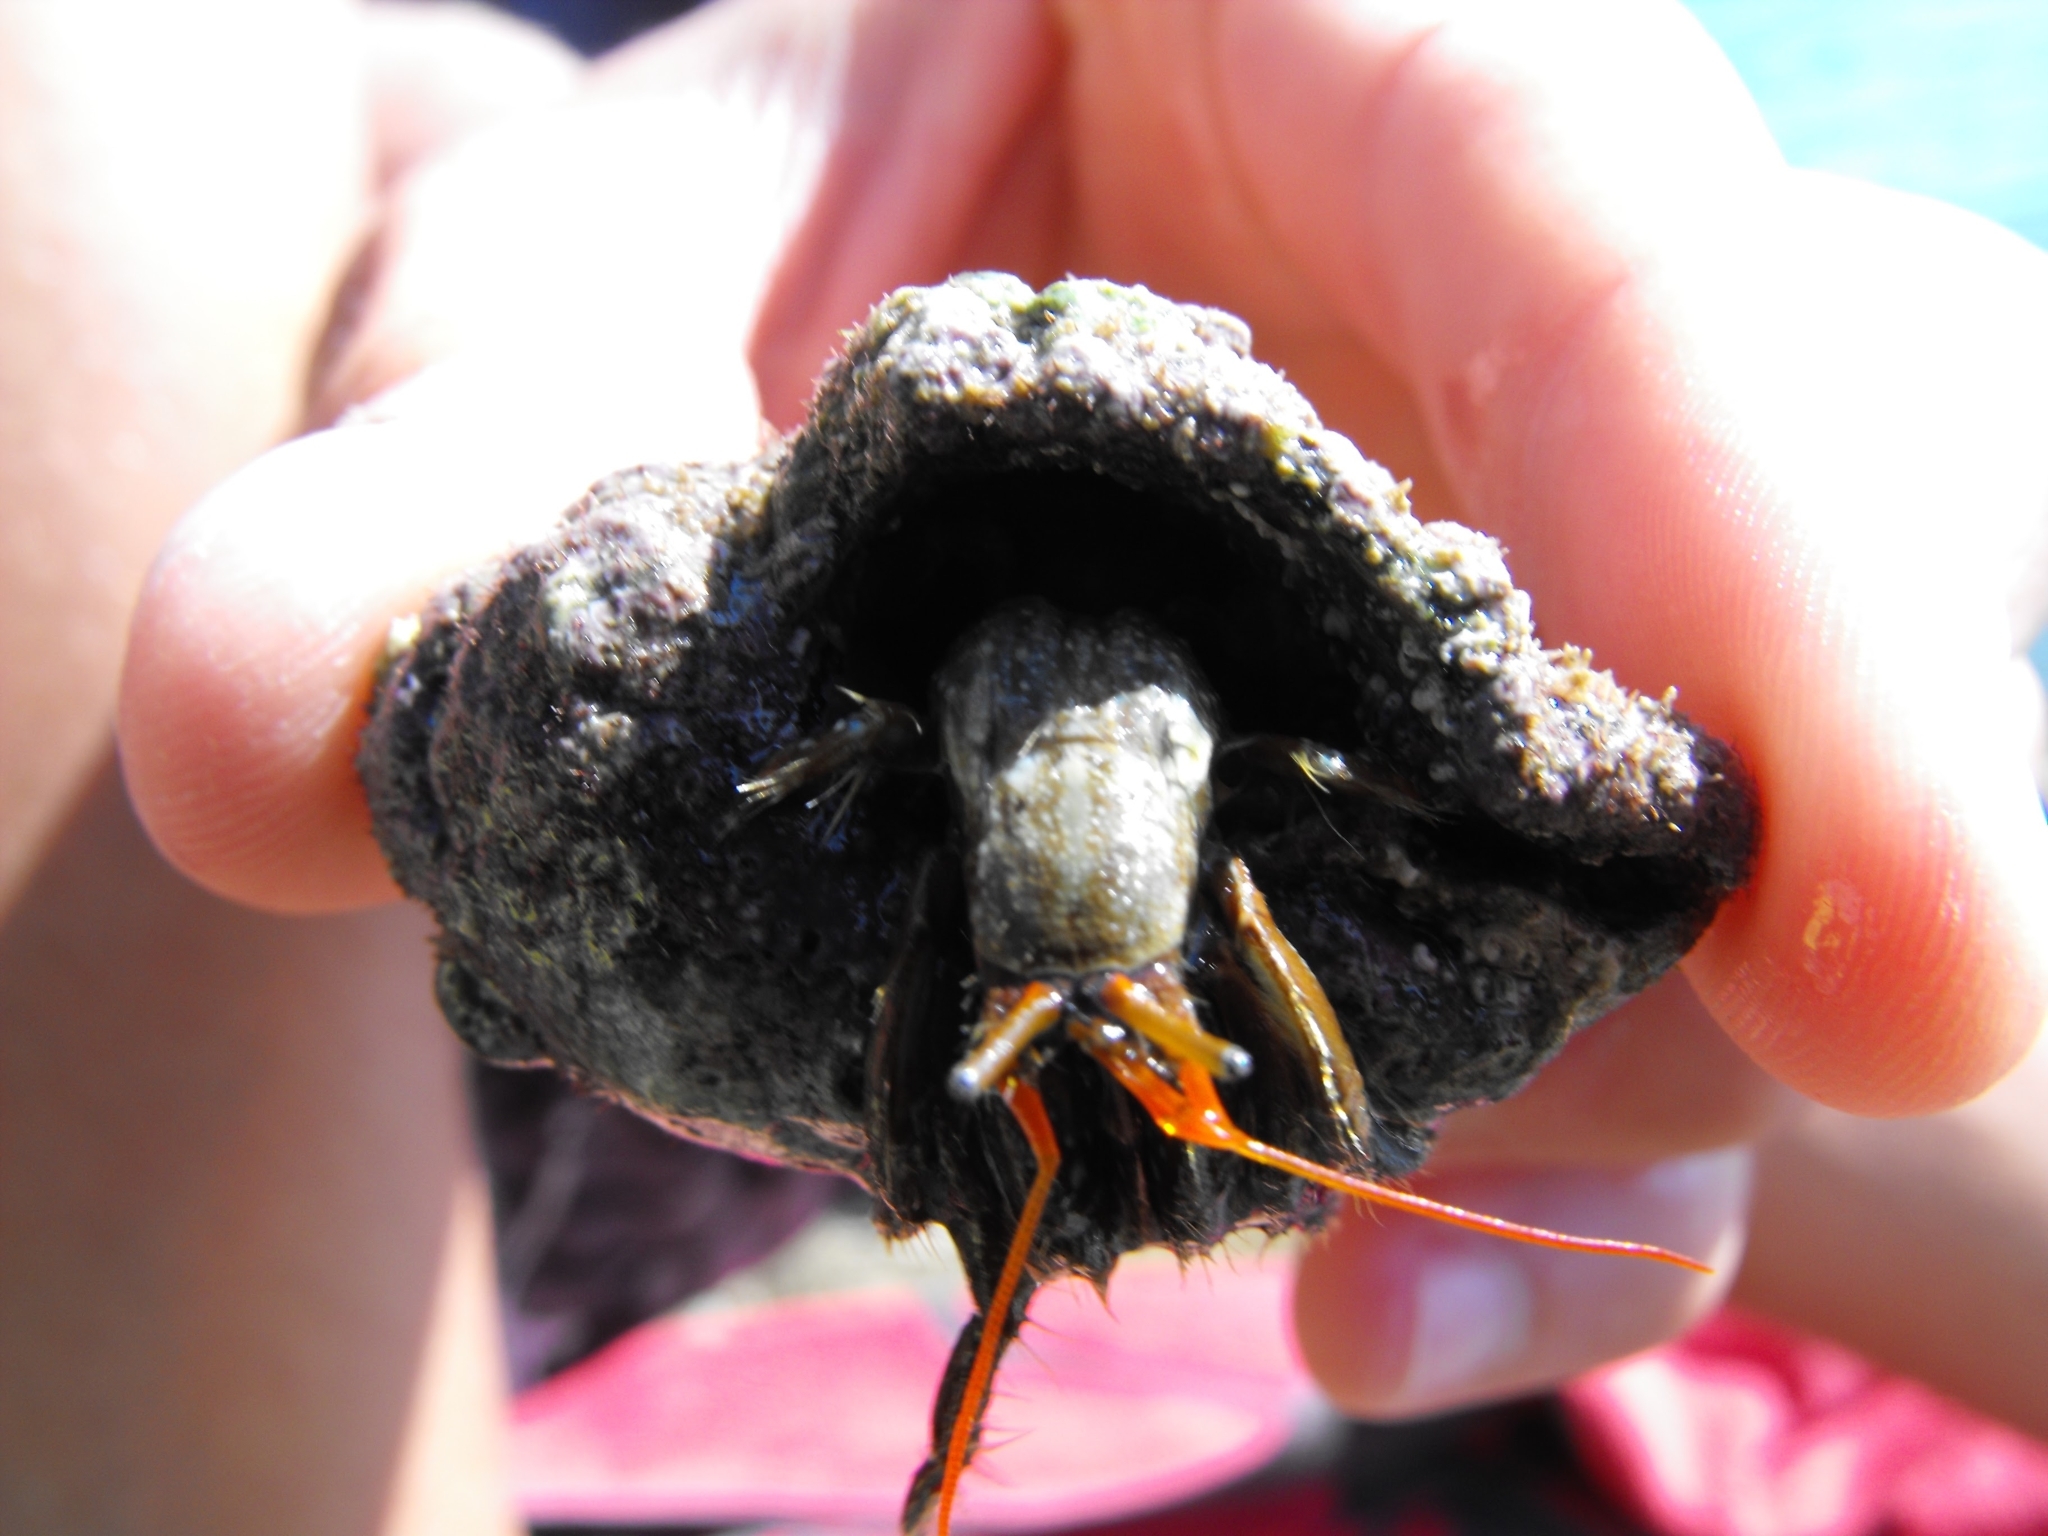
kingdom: Animalia
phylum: Arthropoda
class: Malacostraca
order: Decapoda
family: Diogenidae
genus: Clibanarius
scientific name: Clibanarius erythropus
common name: Hermit crab
